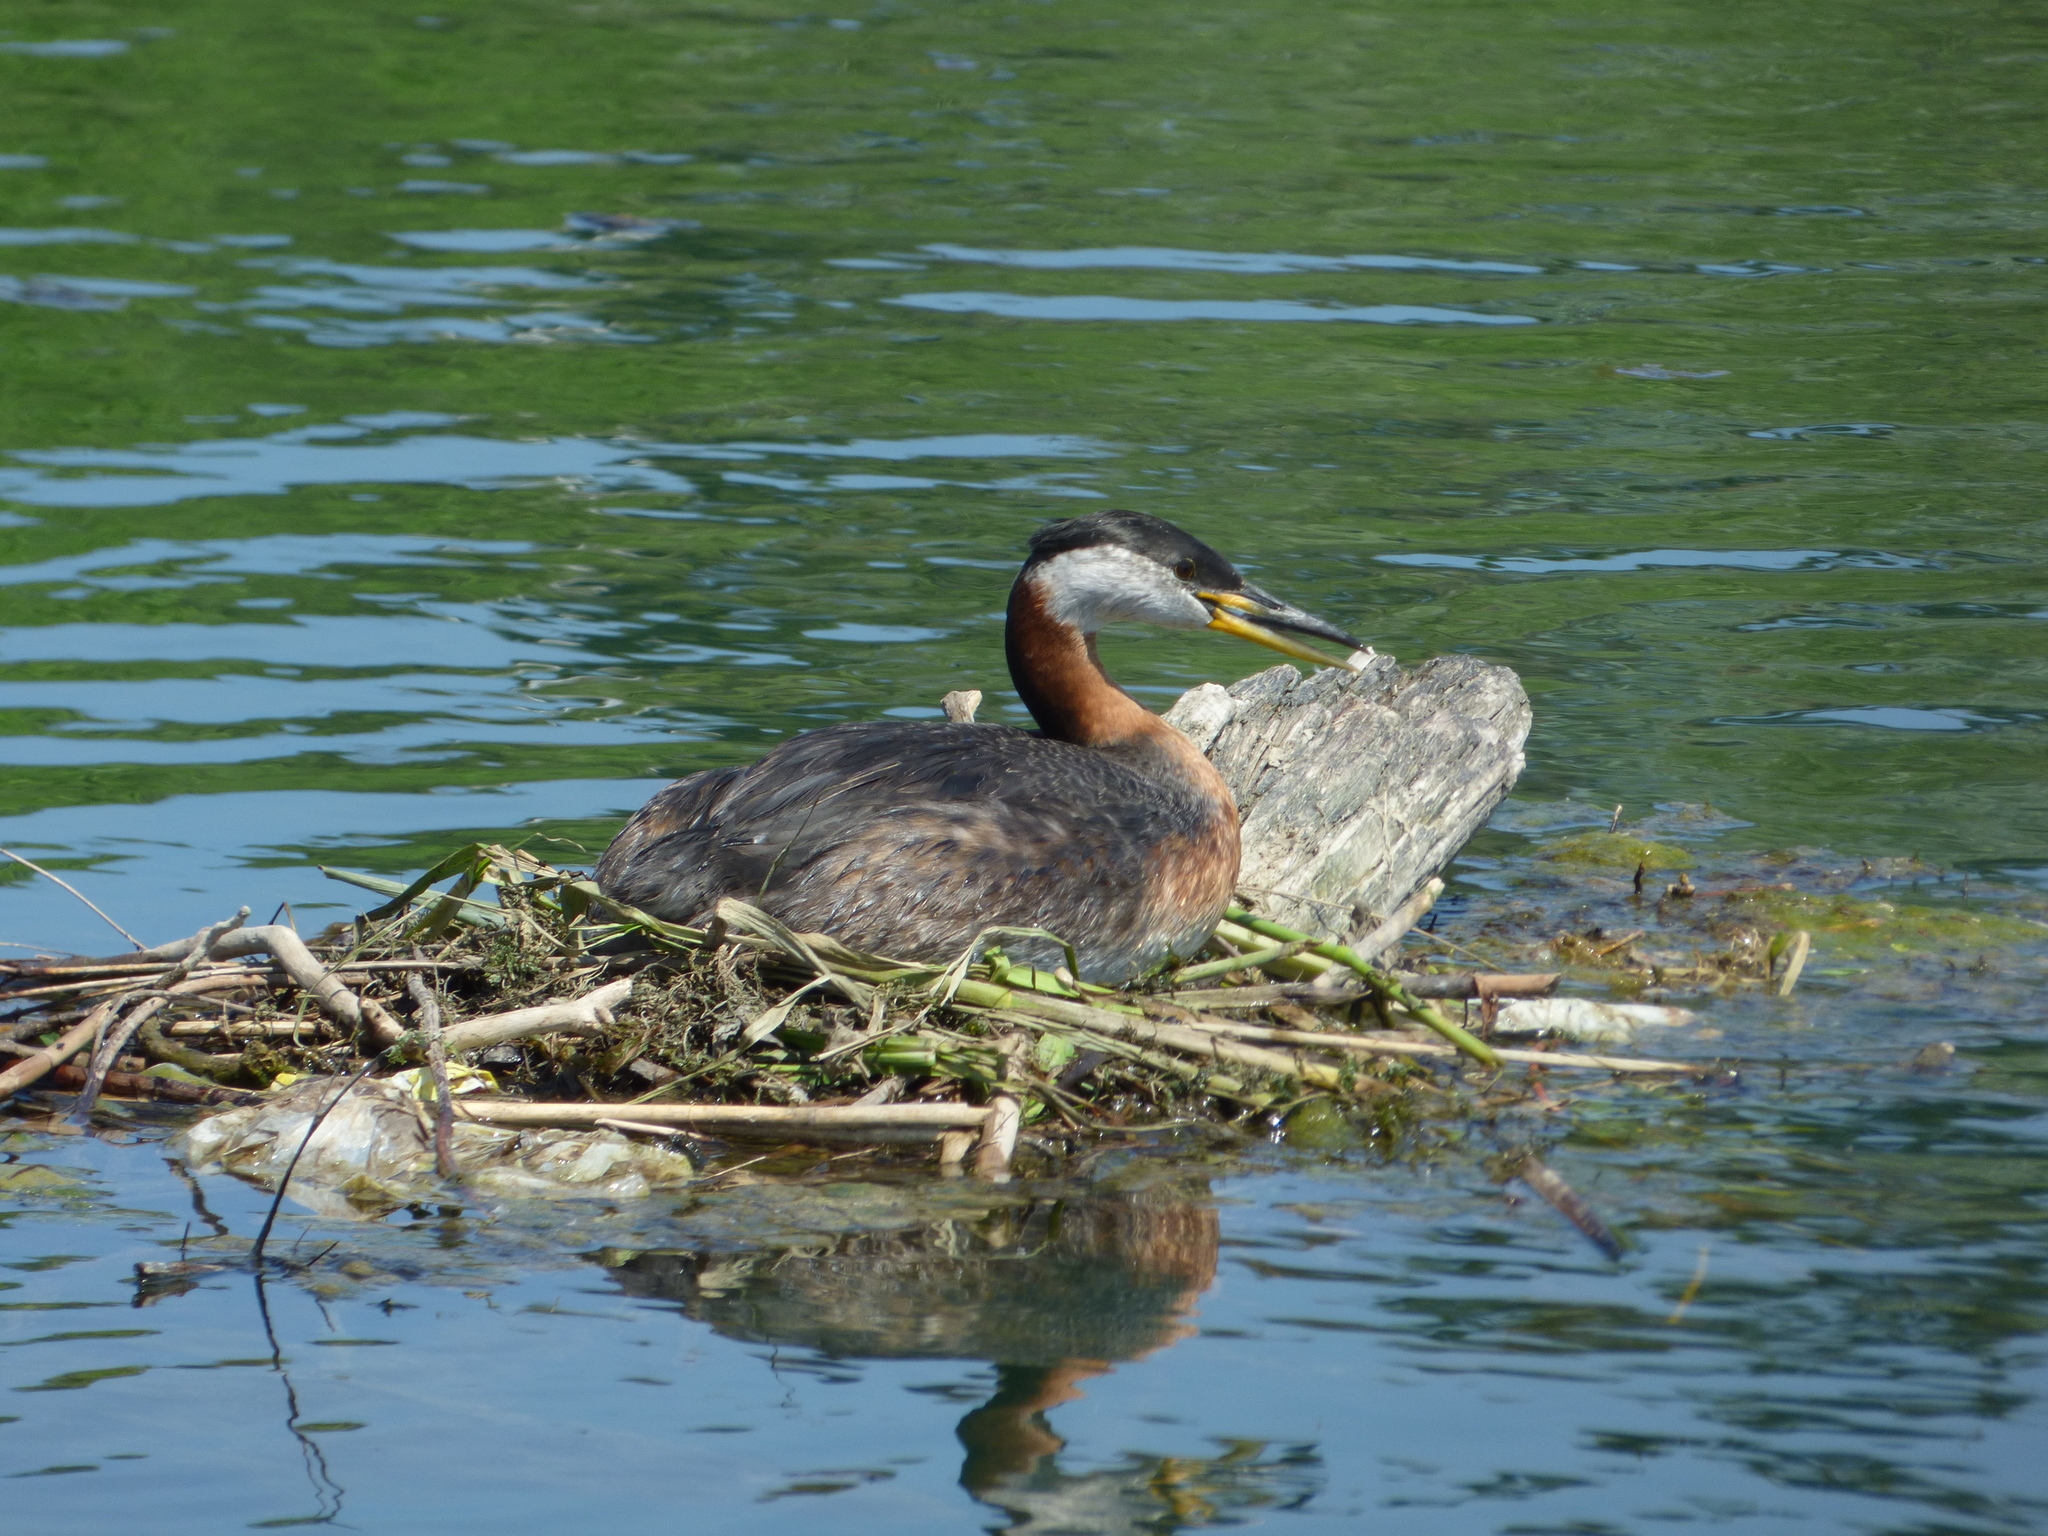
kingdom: Animalia
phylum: Chordata
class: Aves
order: Podicipediformes
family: Podicipedidae
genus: Podiceps
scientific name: Podiceps grisegena
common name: Red-necked grebe
